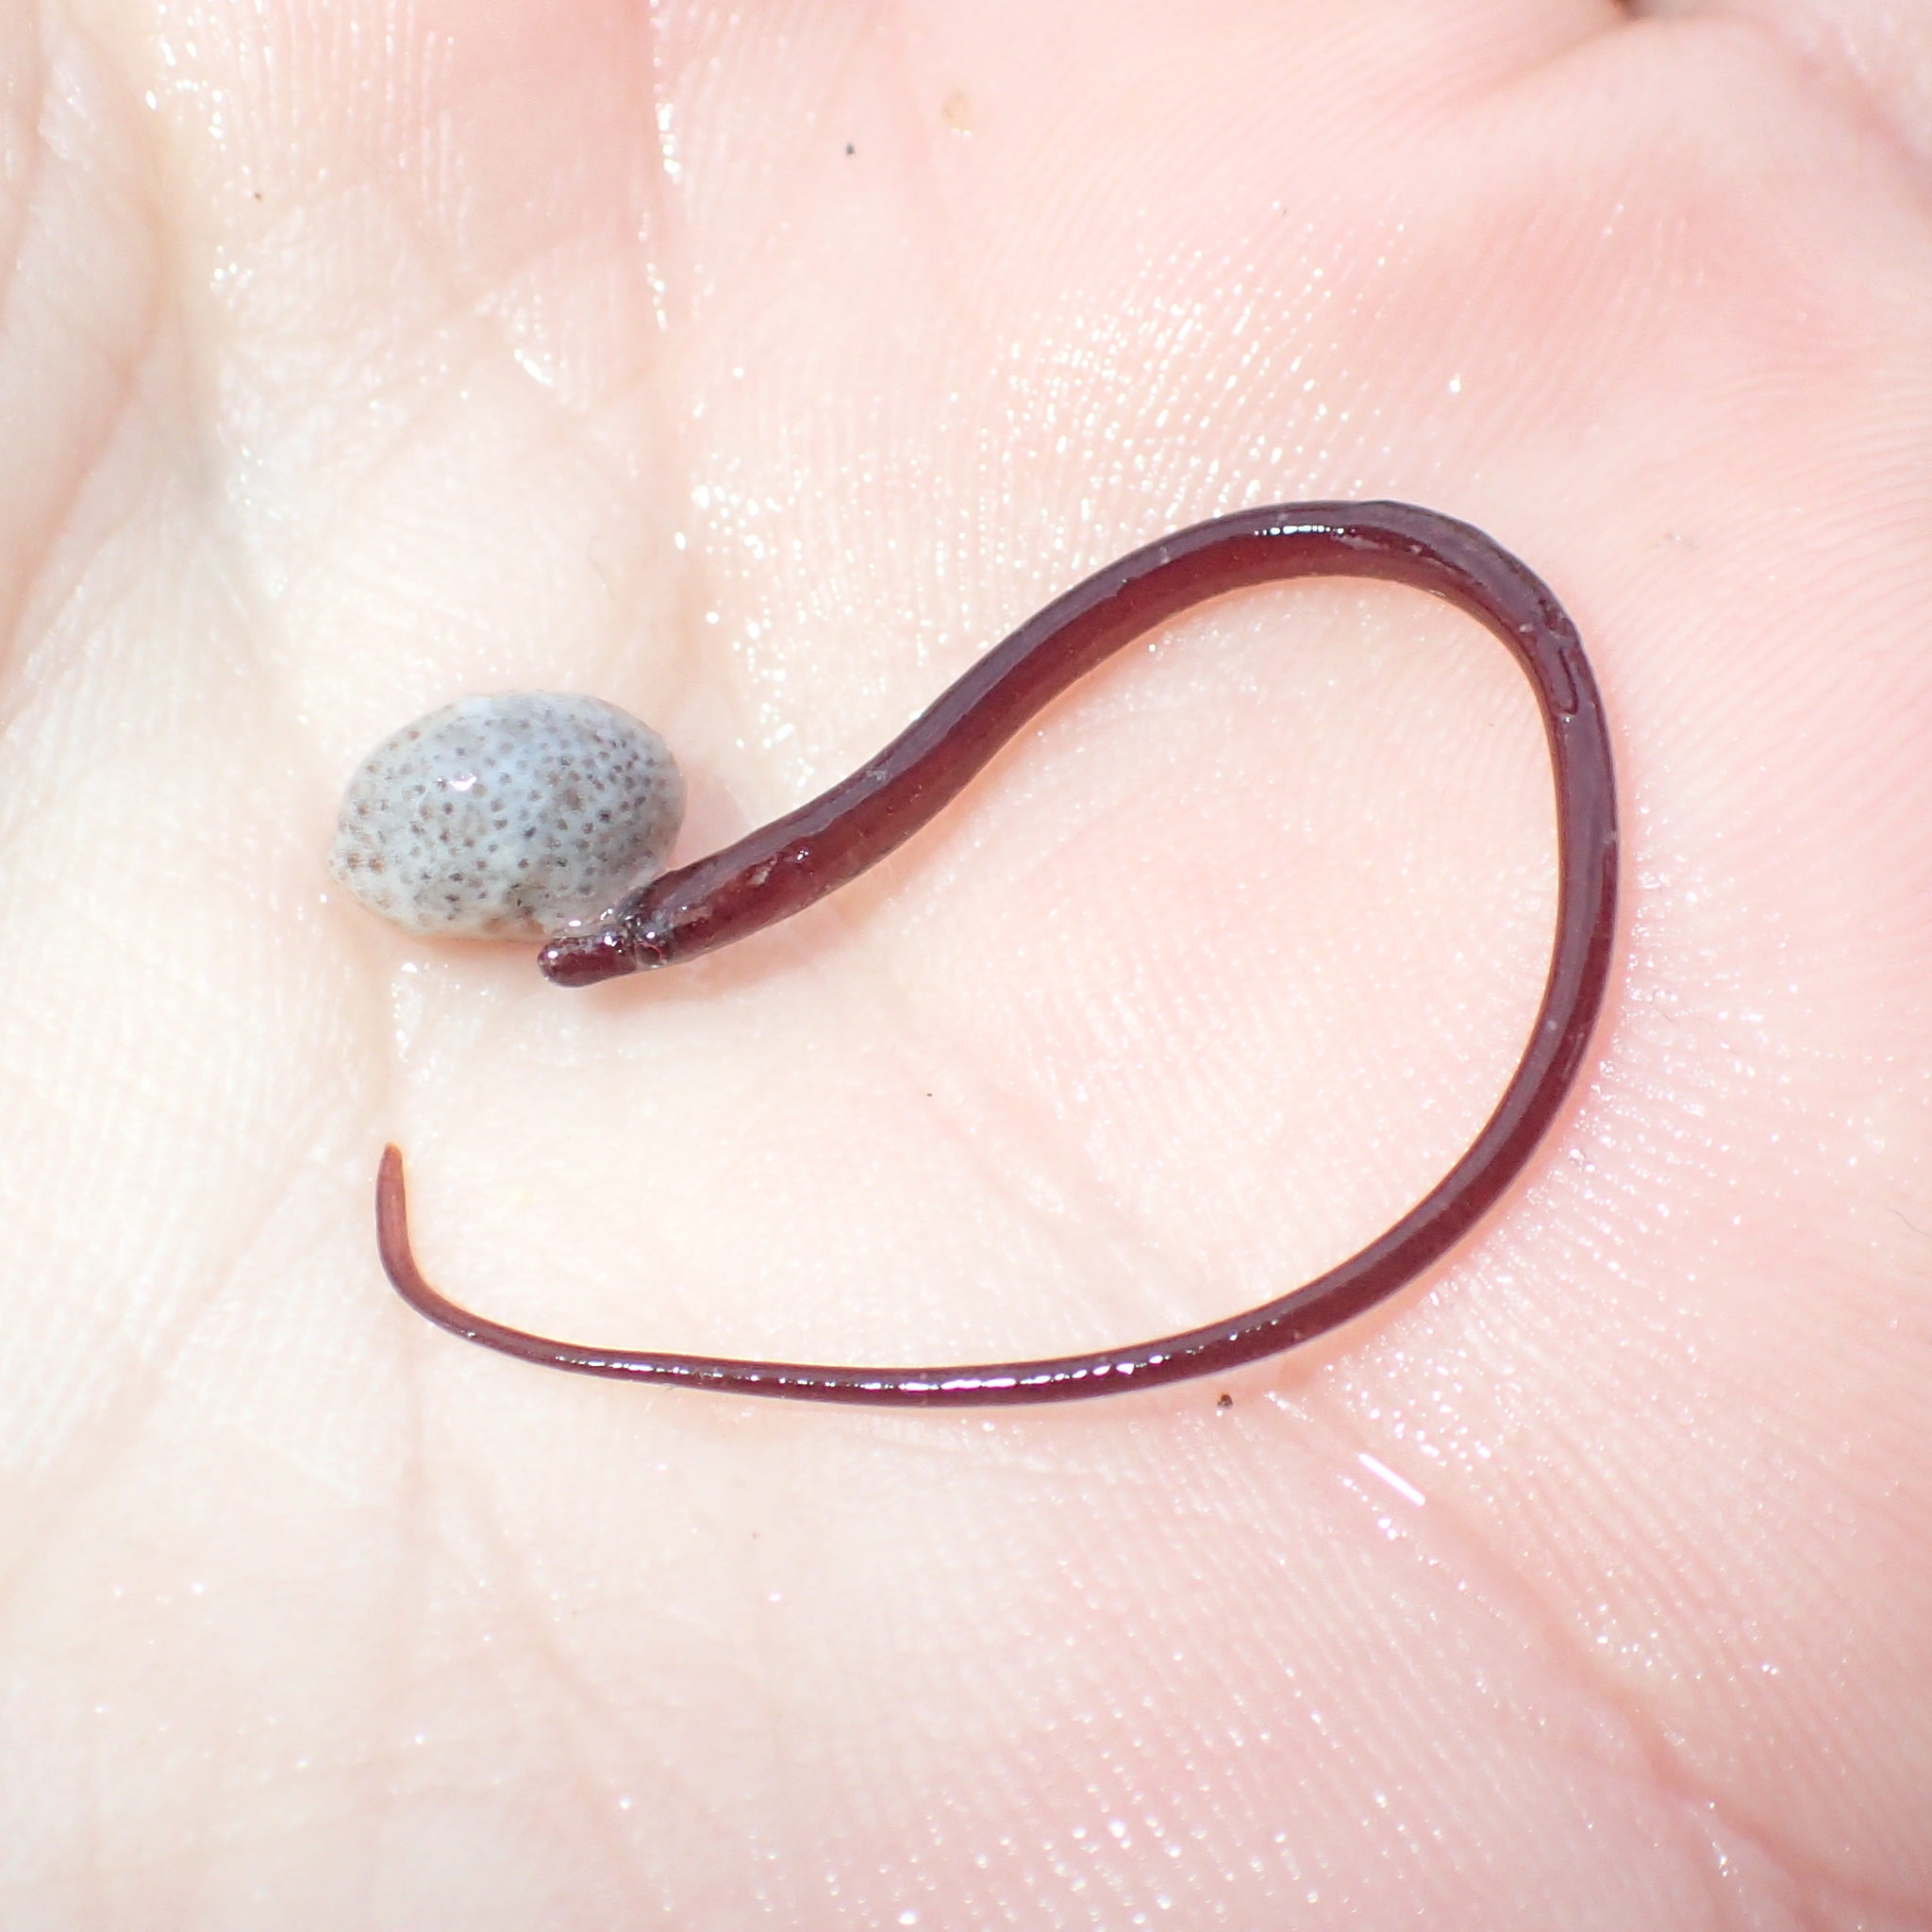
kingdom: Animalia
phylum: Chordata
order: Syngnathiformes
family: Syngnathidae
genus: Nerophis
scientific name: Nerophis lumbriciformis
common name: Worm pipefish
